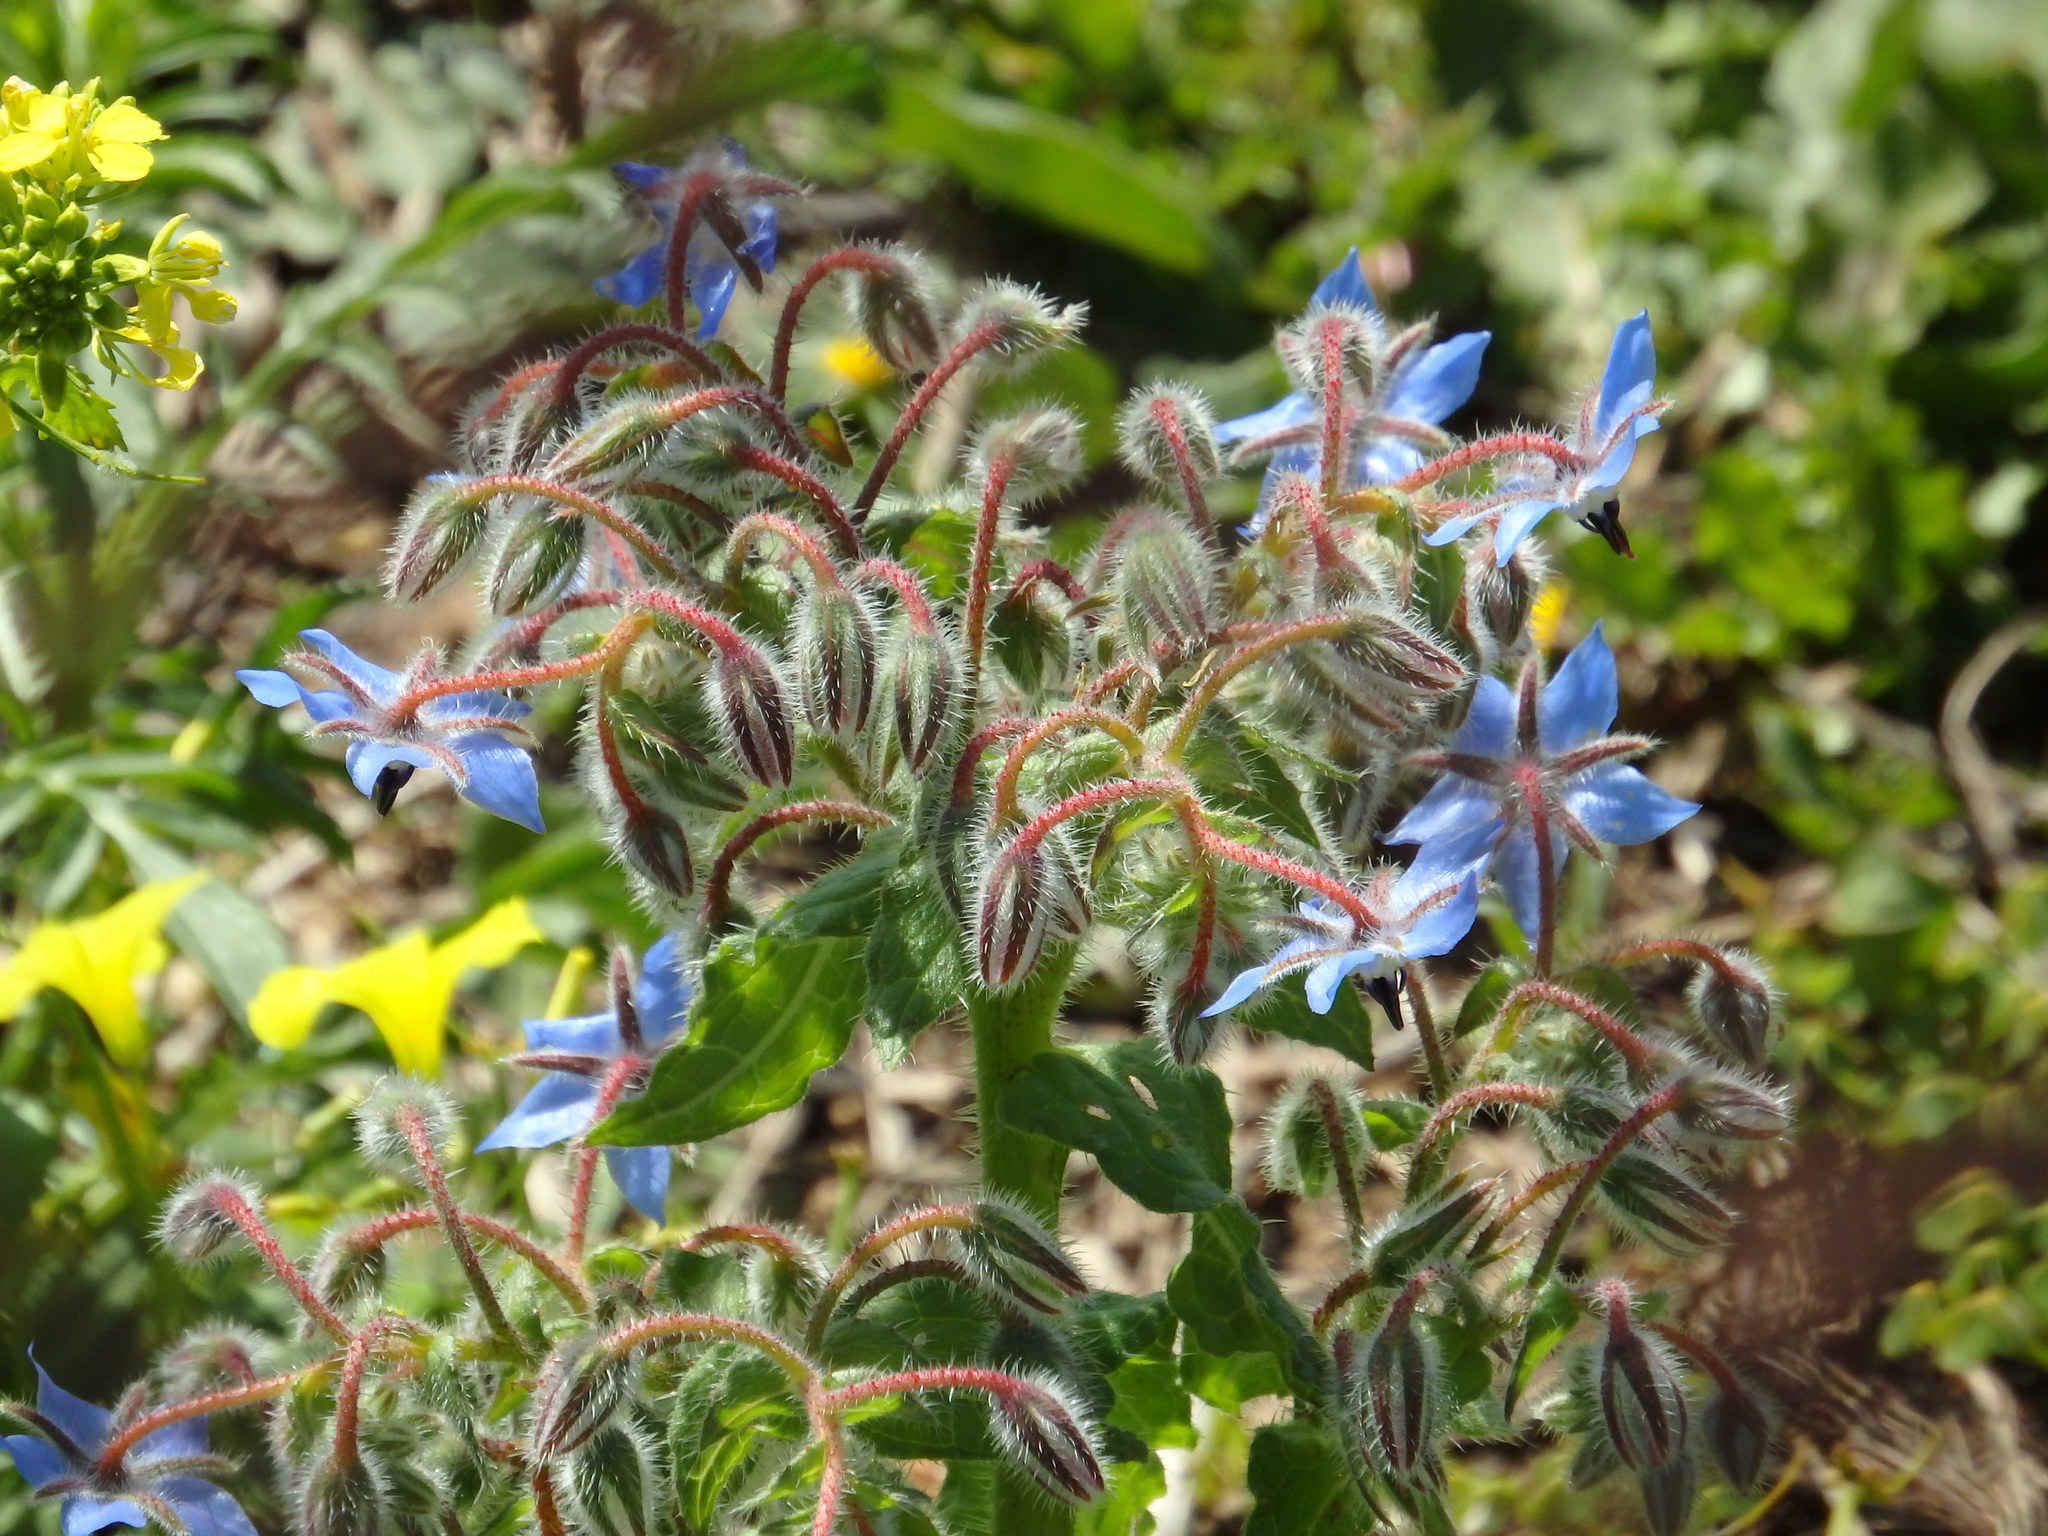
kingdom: Plantae
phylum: Tracheophyta
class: Magnoliopsida
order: Boraginales
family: Boraginaceae
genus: Borago
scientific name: Borago officinalis
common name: Borage
